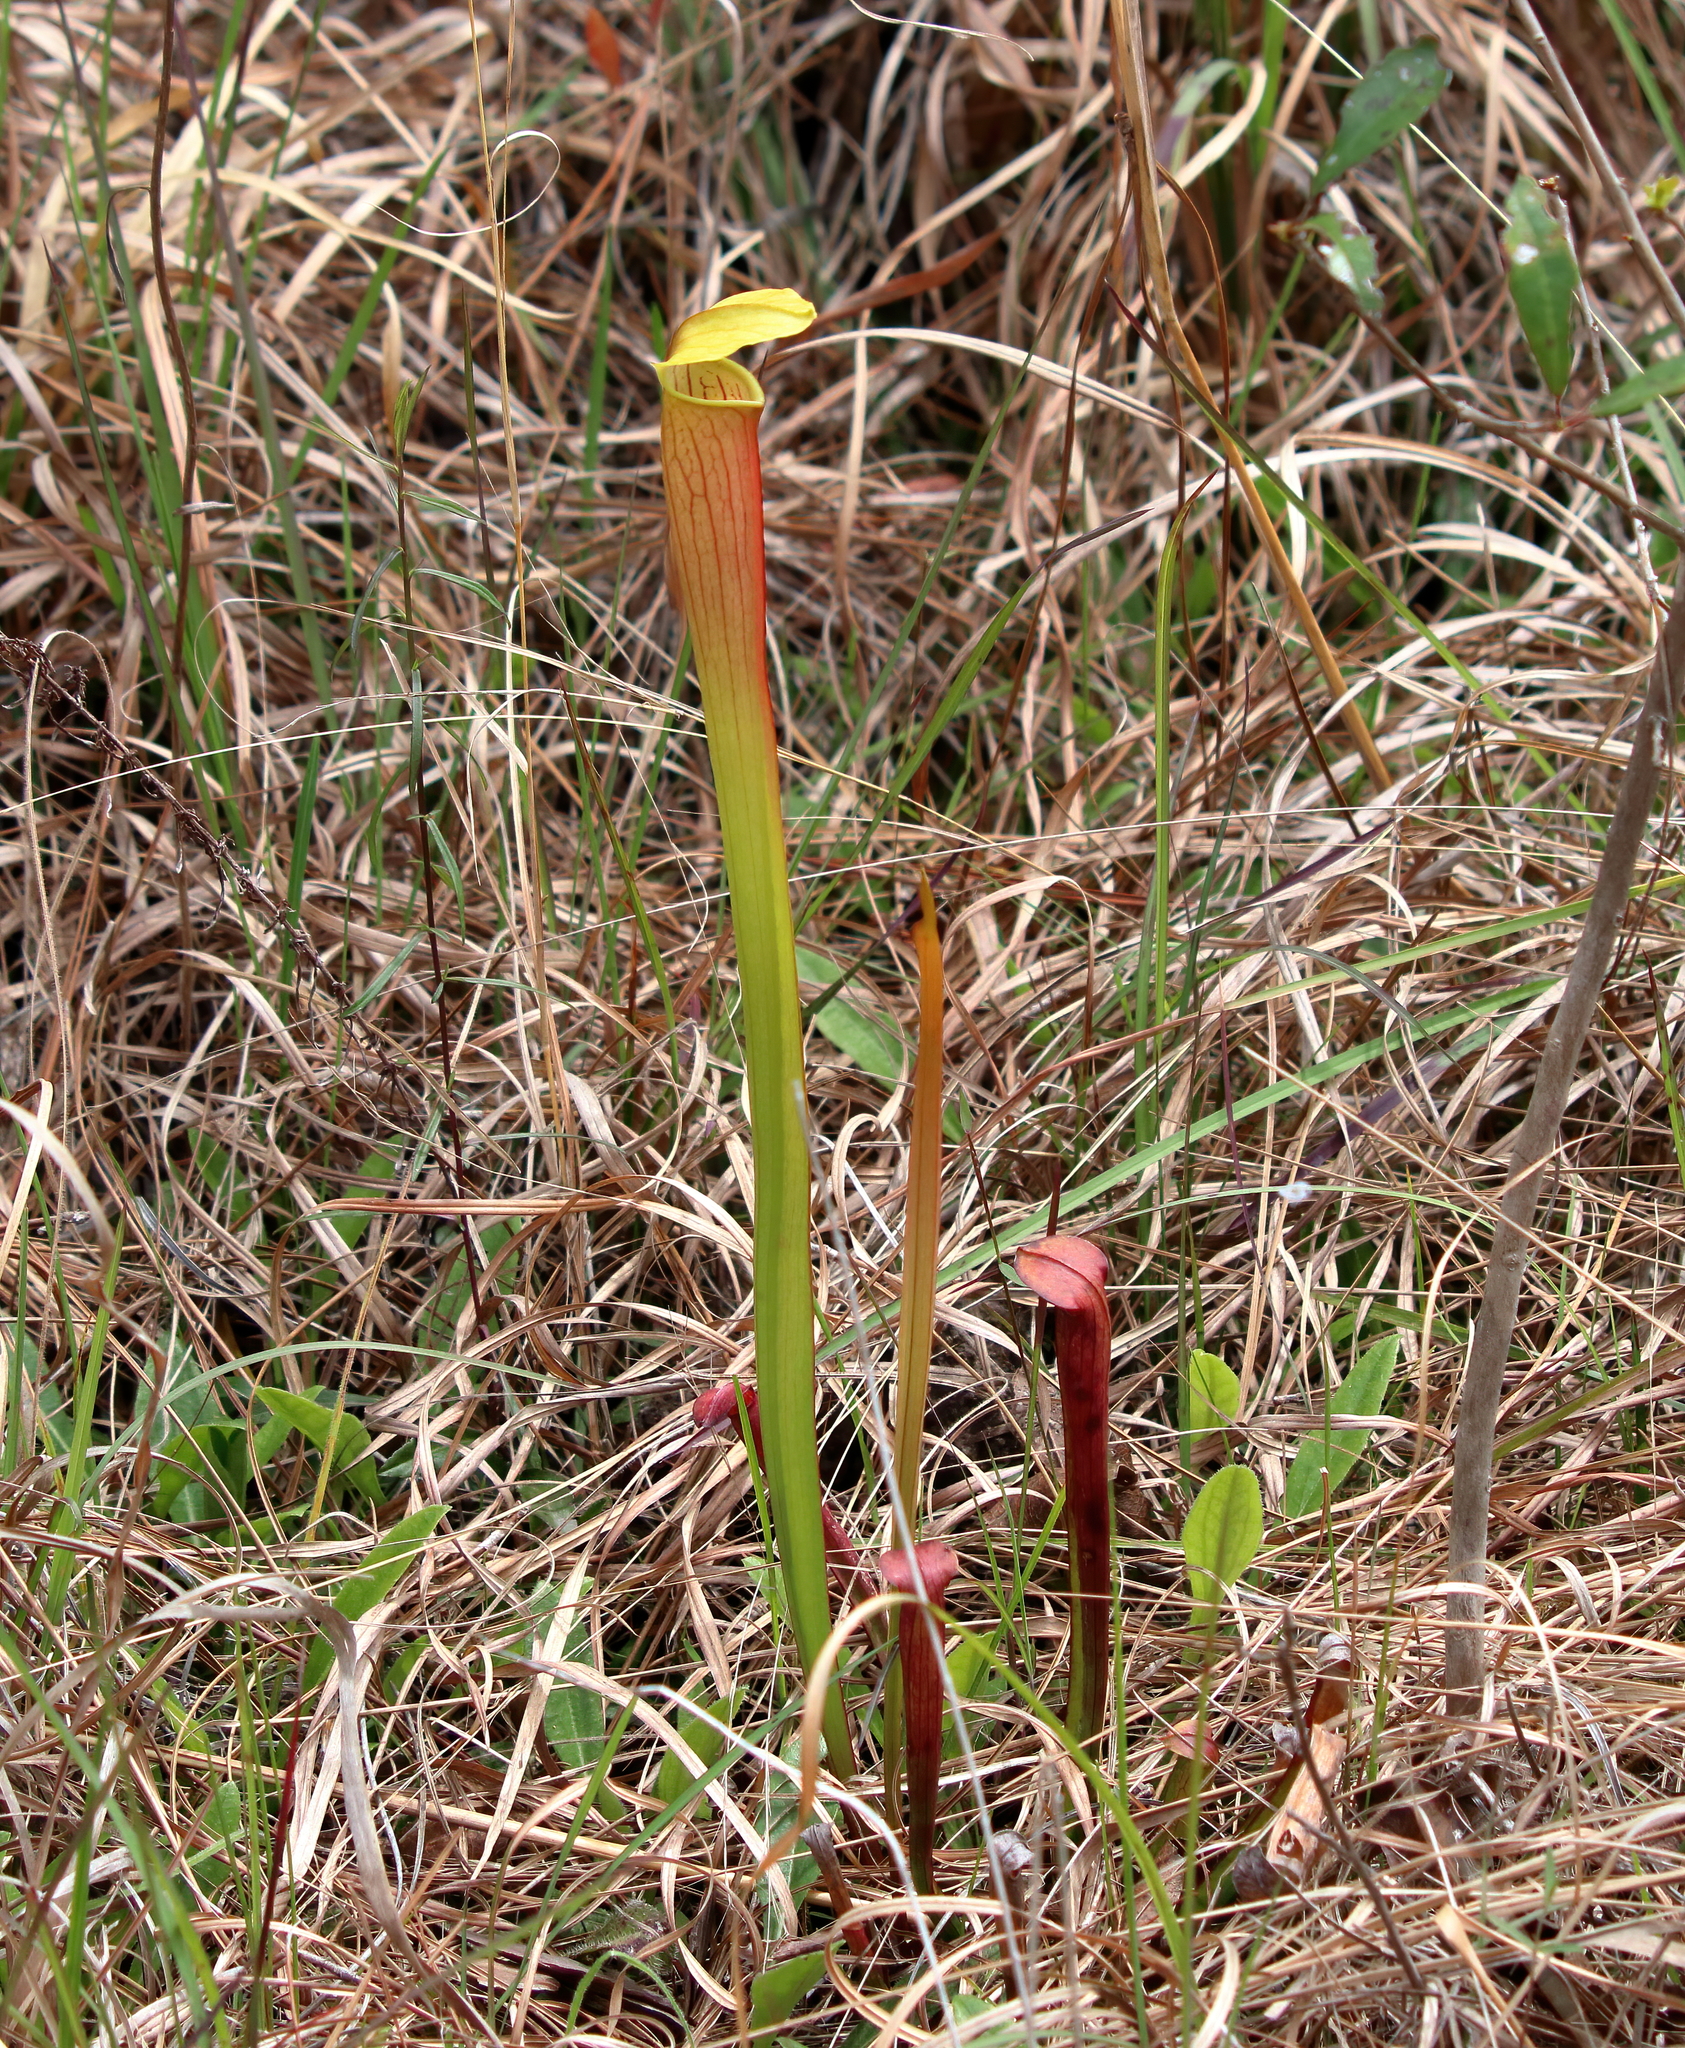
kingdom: Plantae
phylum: Tracheophyta
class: Magnoliopsida
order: Ericales
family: Sarraceniaceae
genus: Sarracenia
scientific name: Sarracenia alata
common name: Yellow trumpets
